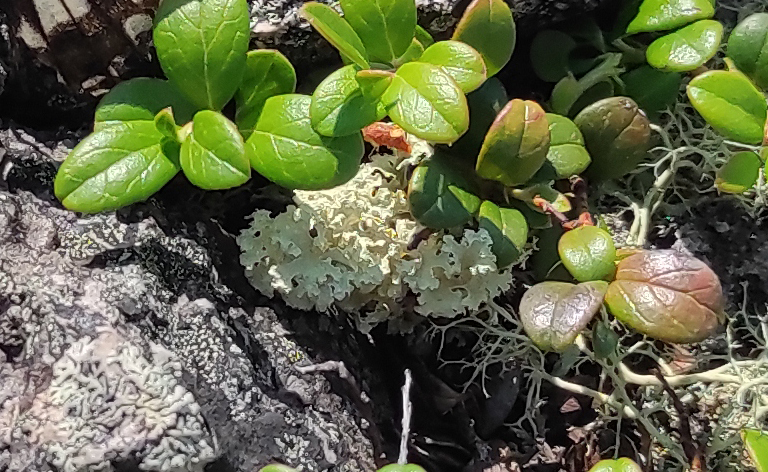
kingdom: Plantae
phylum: Tracheophyta
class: Magnoliopsida
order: Ericales
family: Ericaceae
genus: Vaccinium
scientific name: Vaccinium vitis-idaea
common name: Cowberry
